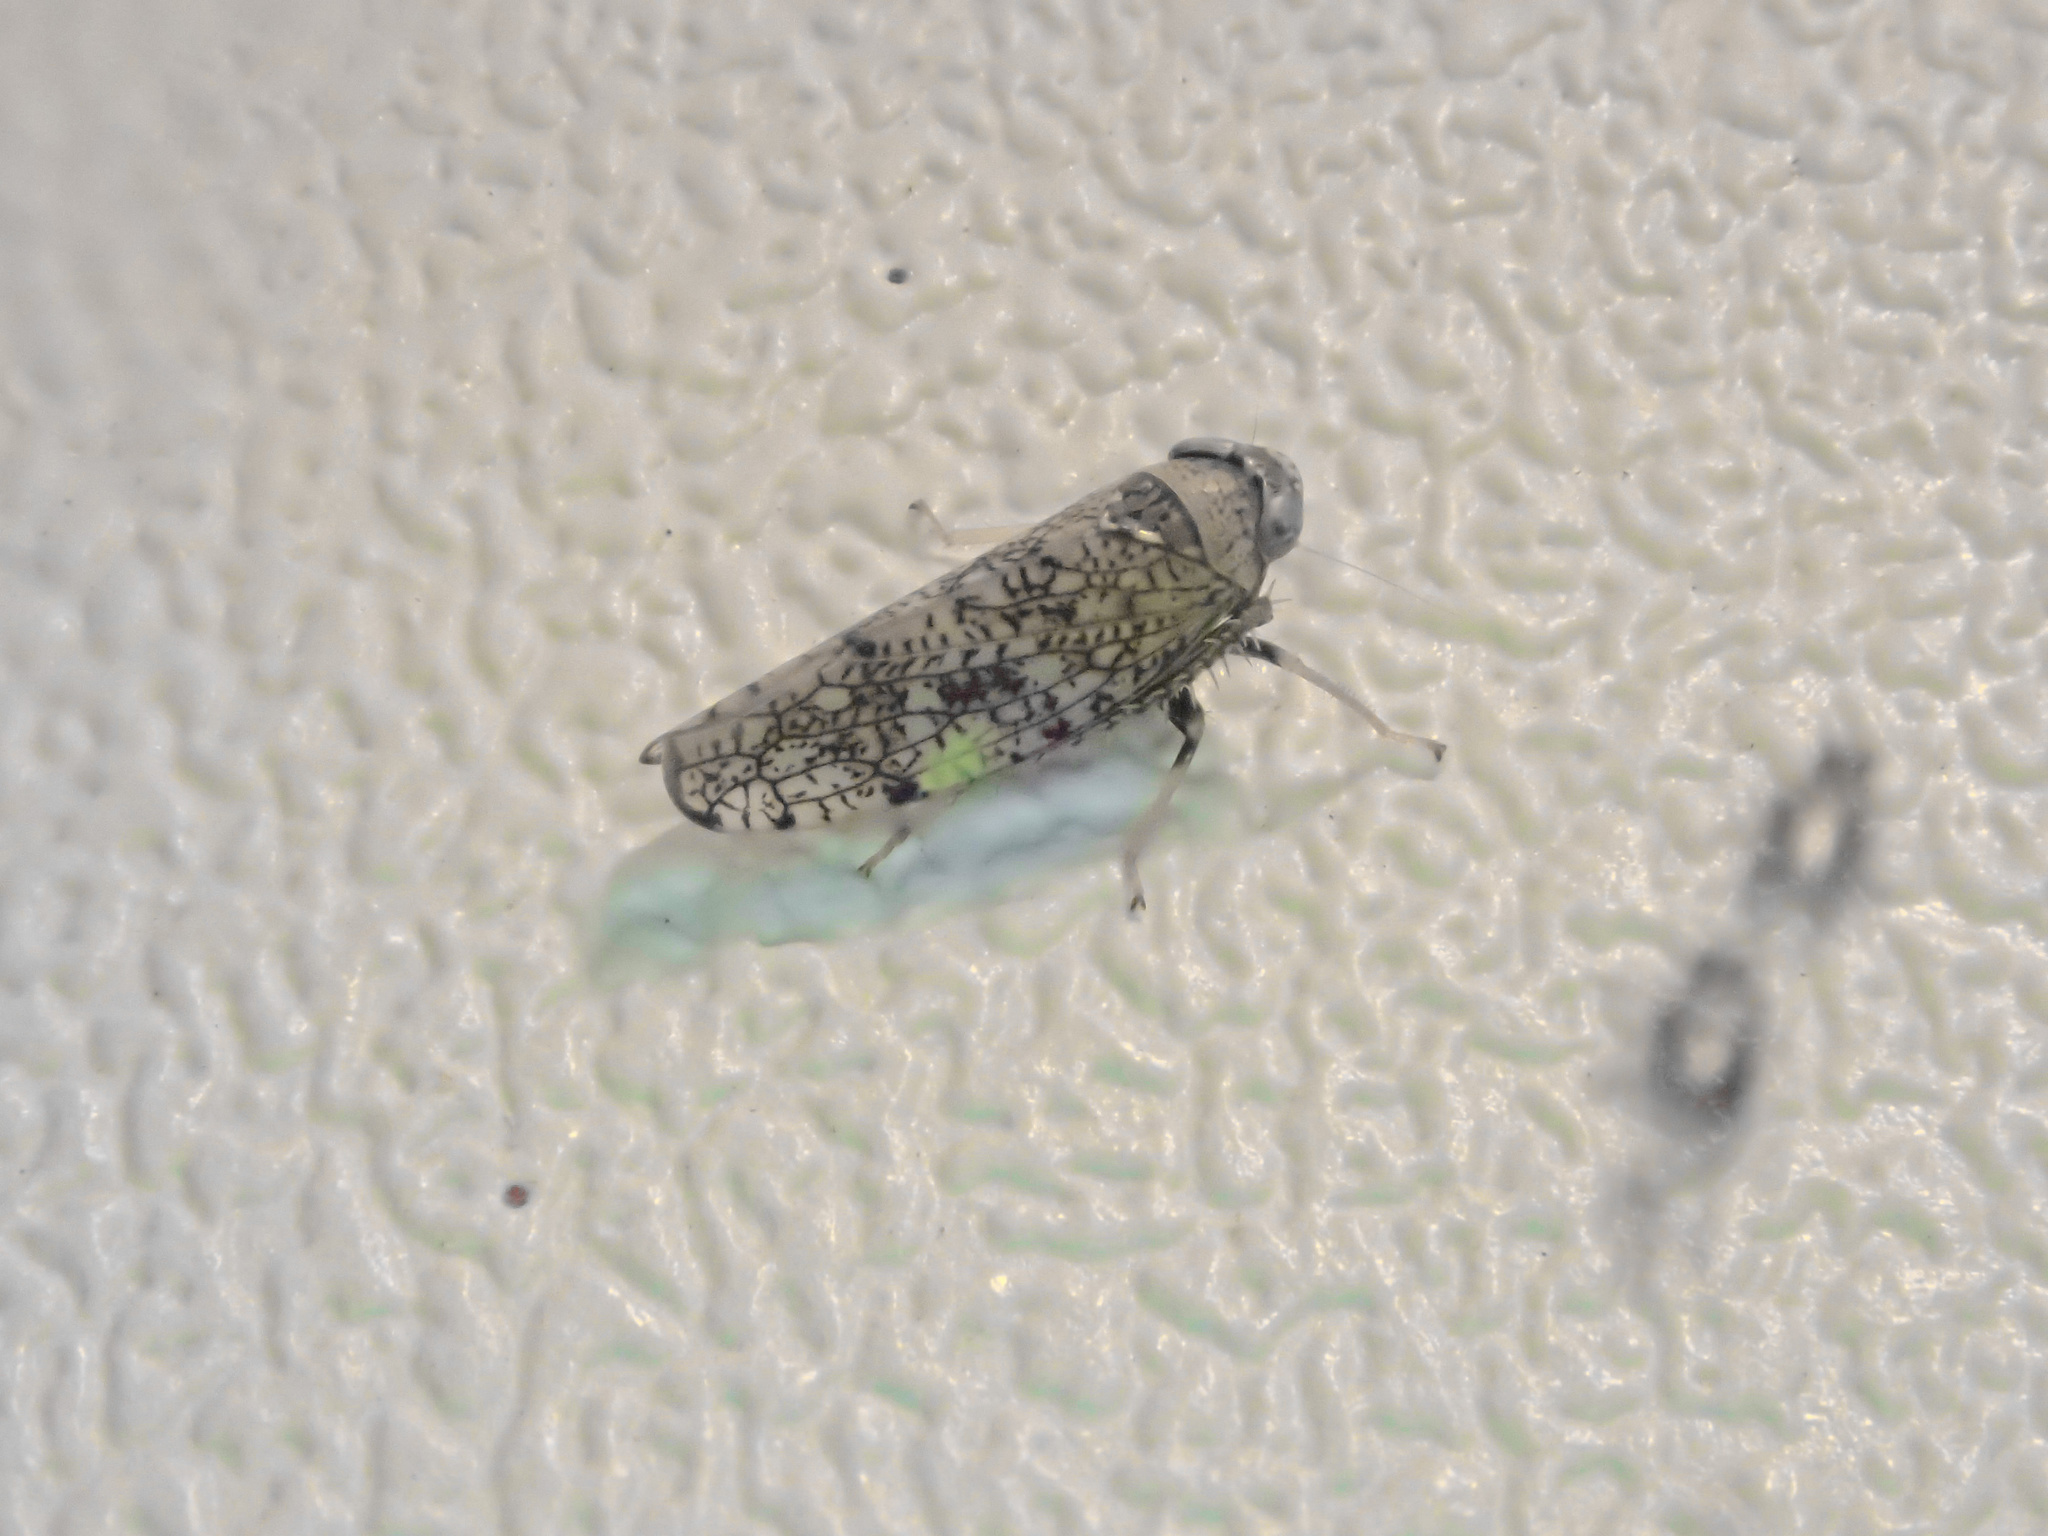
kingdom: Animalia
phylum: Arthropoda
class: Insecta
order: Hemiptera
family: Cicadellidae
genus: Orientus
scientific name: Orientus ishidae
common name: Japanese leafhopper
